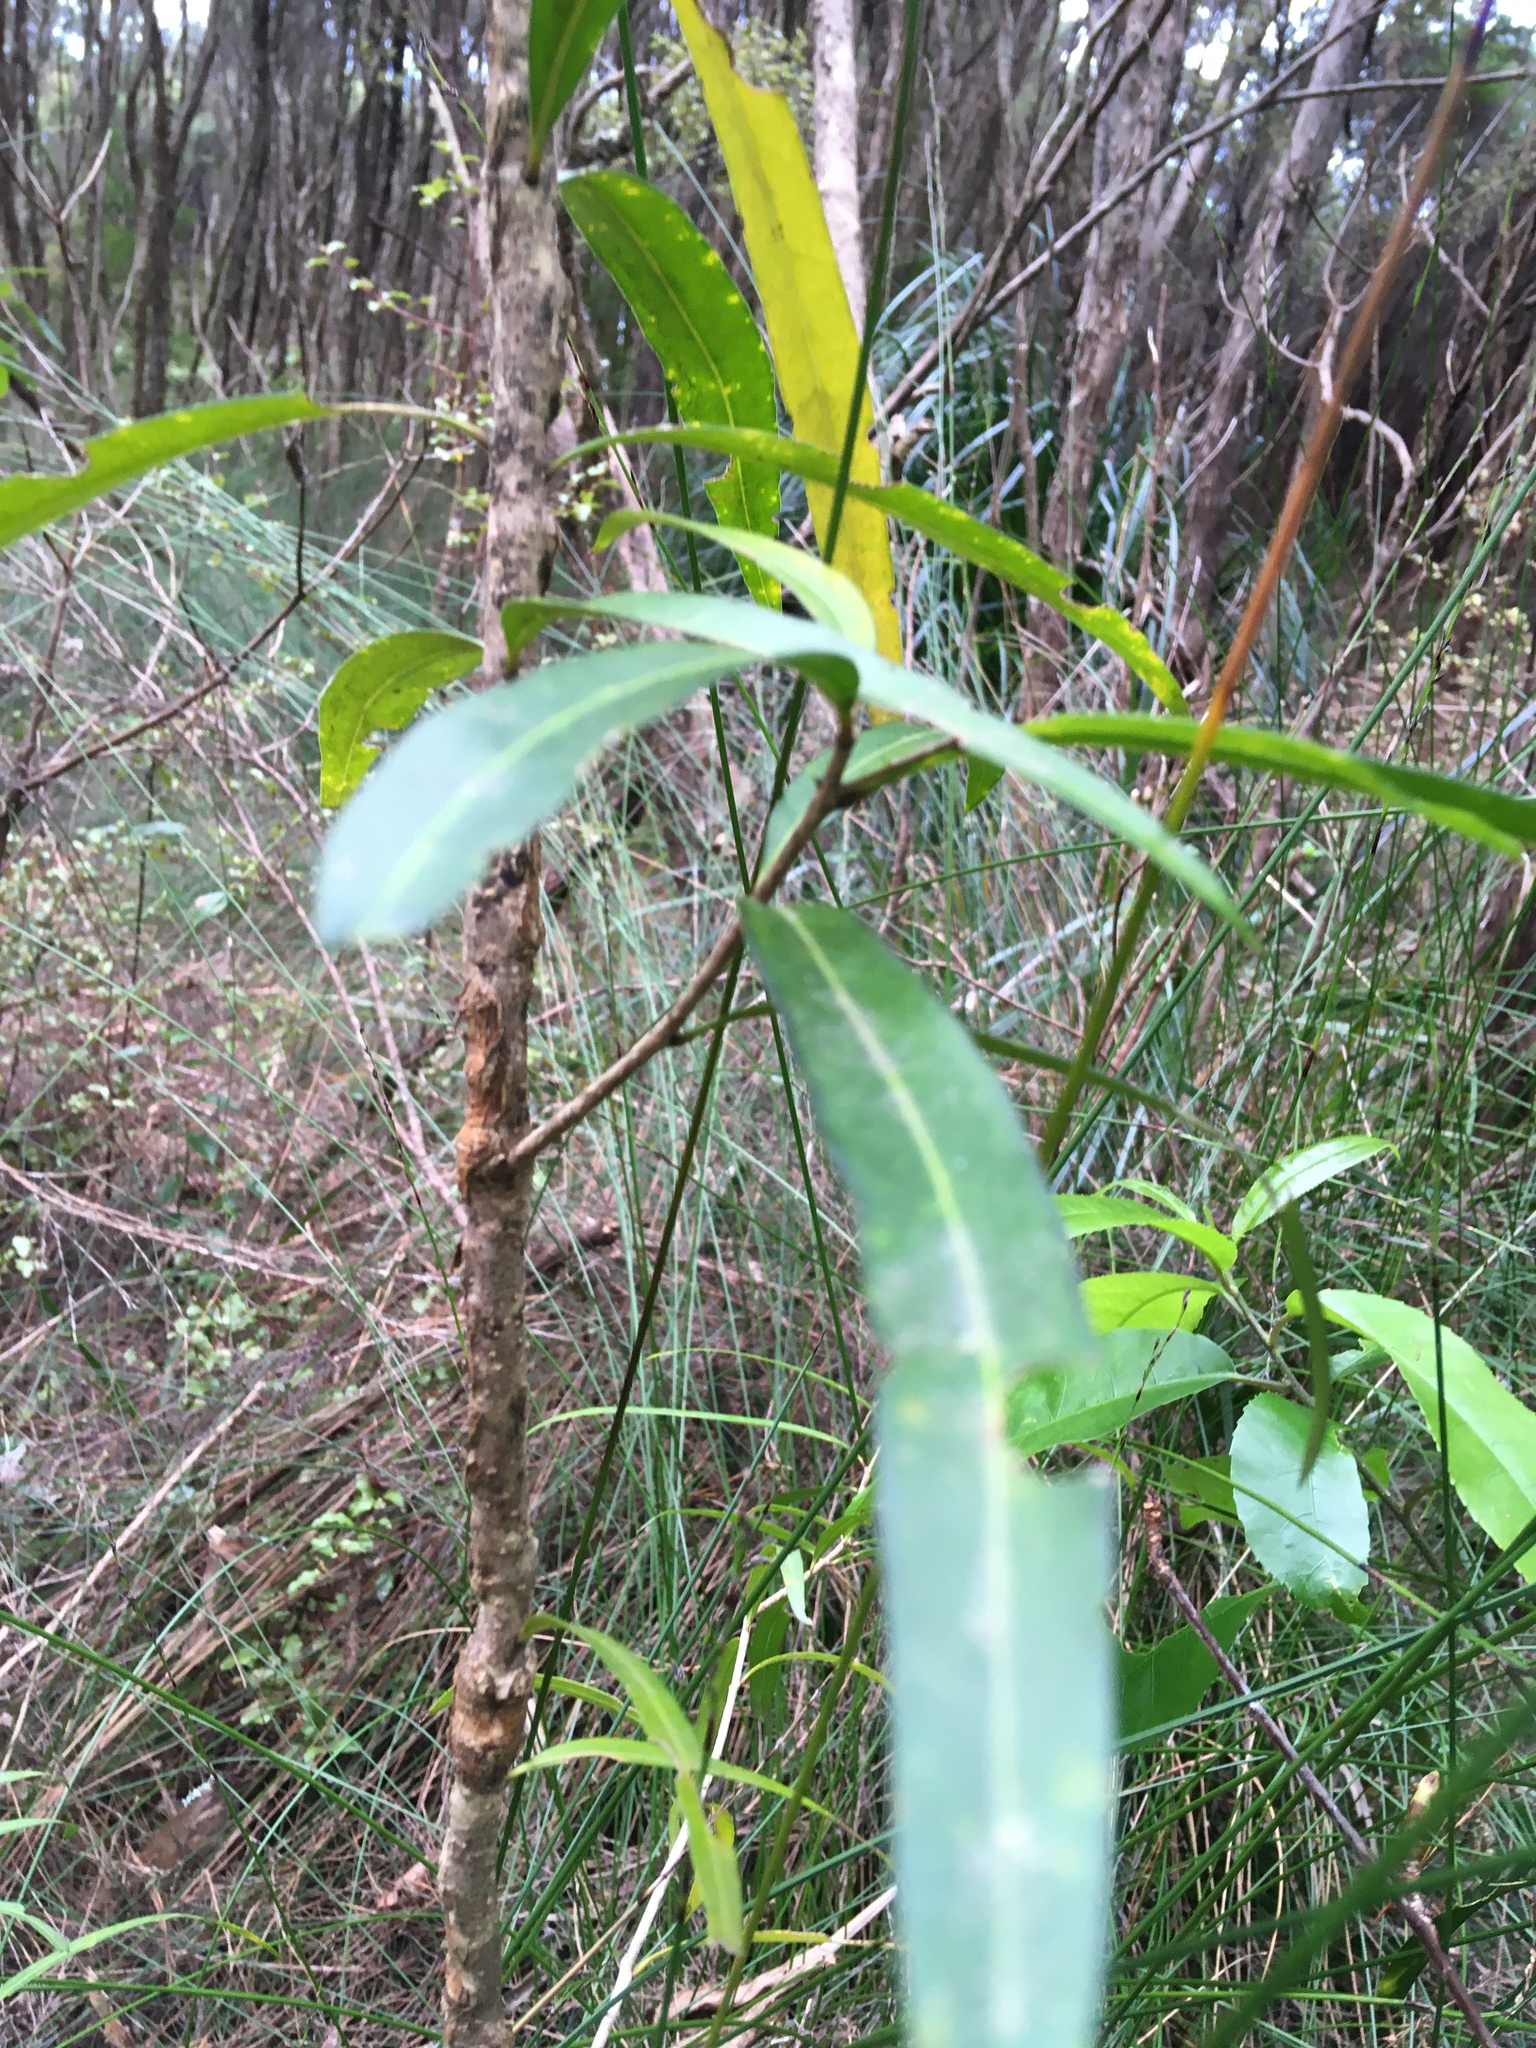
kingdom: Plantae
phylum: Tracheophyta
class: Magnoliopsida
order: Lamiales
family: Oleaceae
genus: Nestegis
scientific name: Nestegis lanceolata
